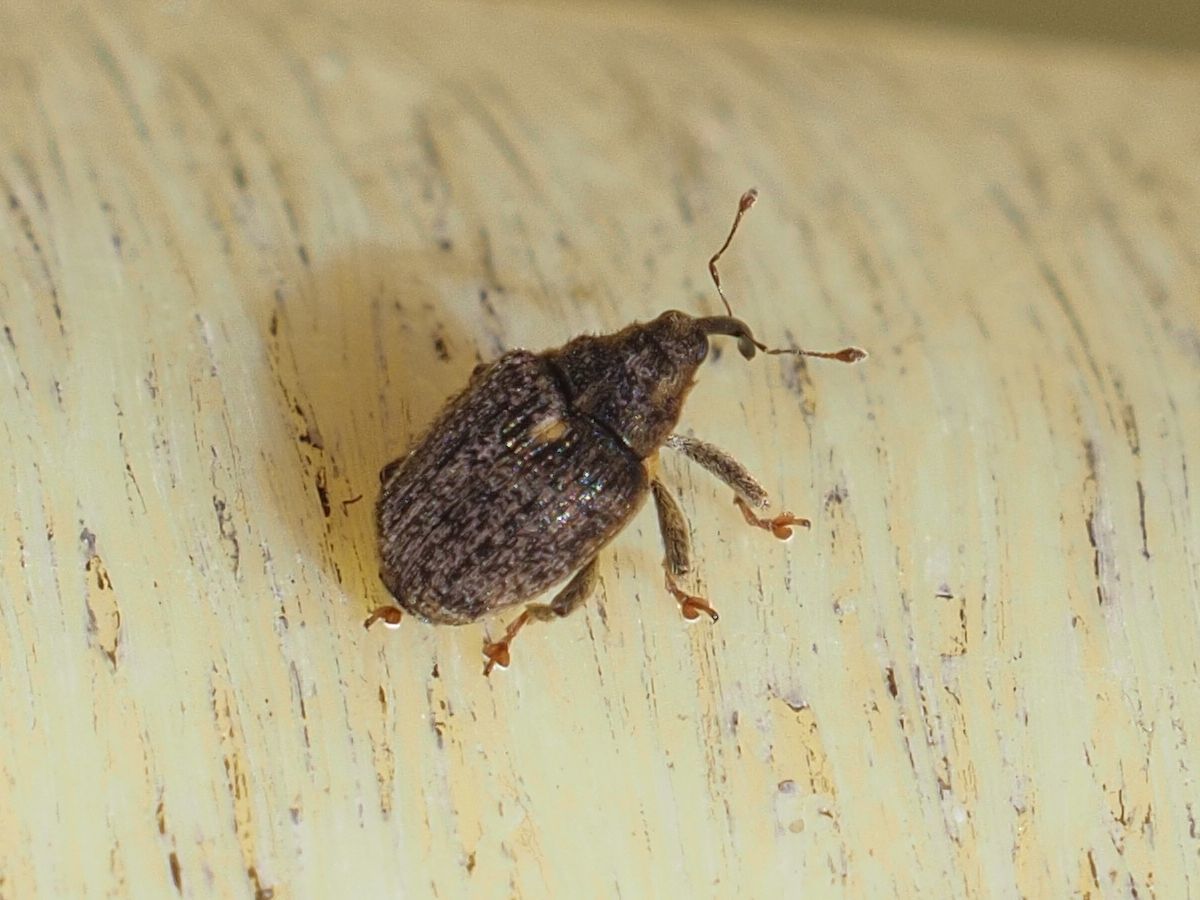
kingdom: Animalia
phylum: Arthropoda
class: Insecta
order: Coleoptera
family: Curculionidae
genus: Ceutorhynchus
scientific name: Ceutorhynchus pallidactylus
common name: Cabbage stem weavil
